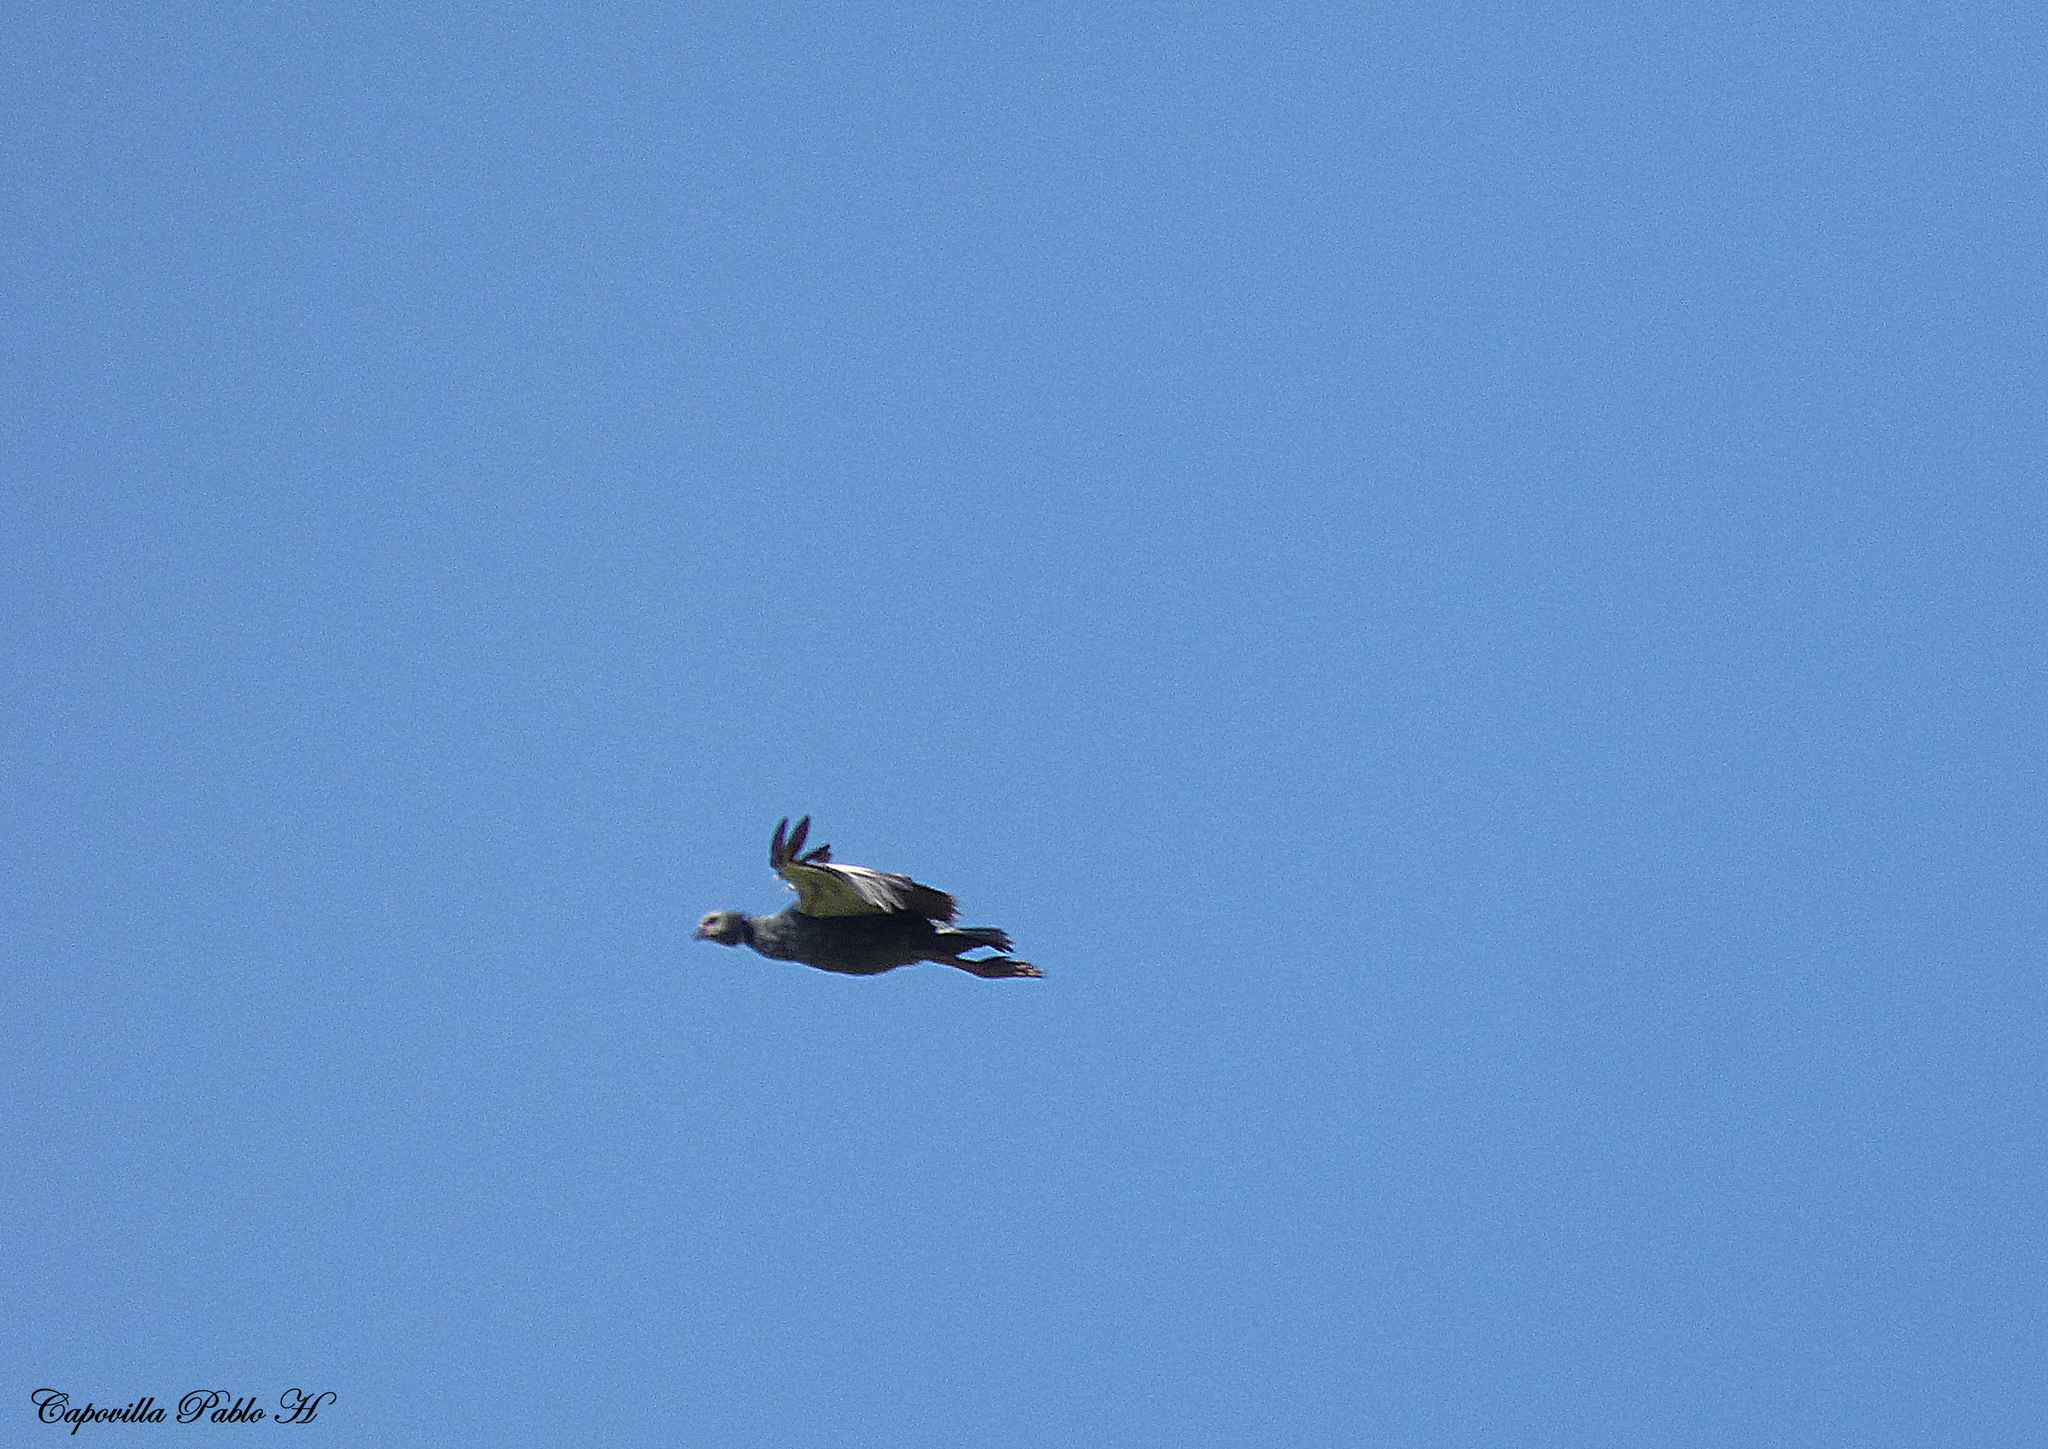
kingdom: Animalia
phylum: Chordata
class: Aves
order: Anseriformes
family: Anhimidae
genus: Chauna
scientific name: Chauna torquata
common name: Southern screamer
